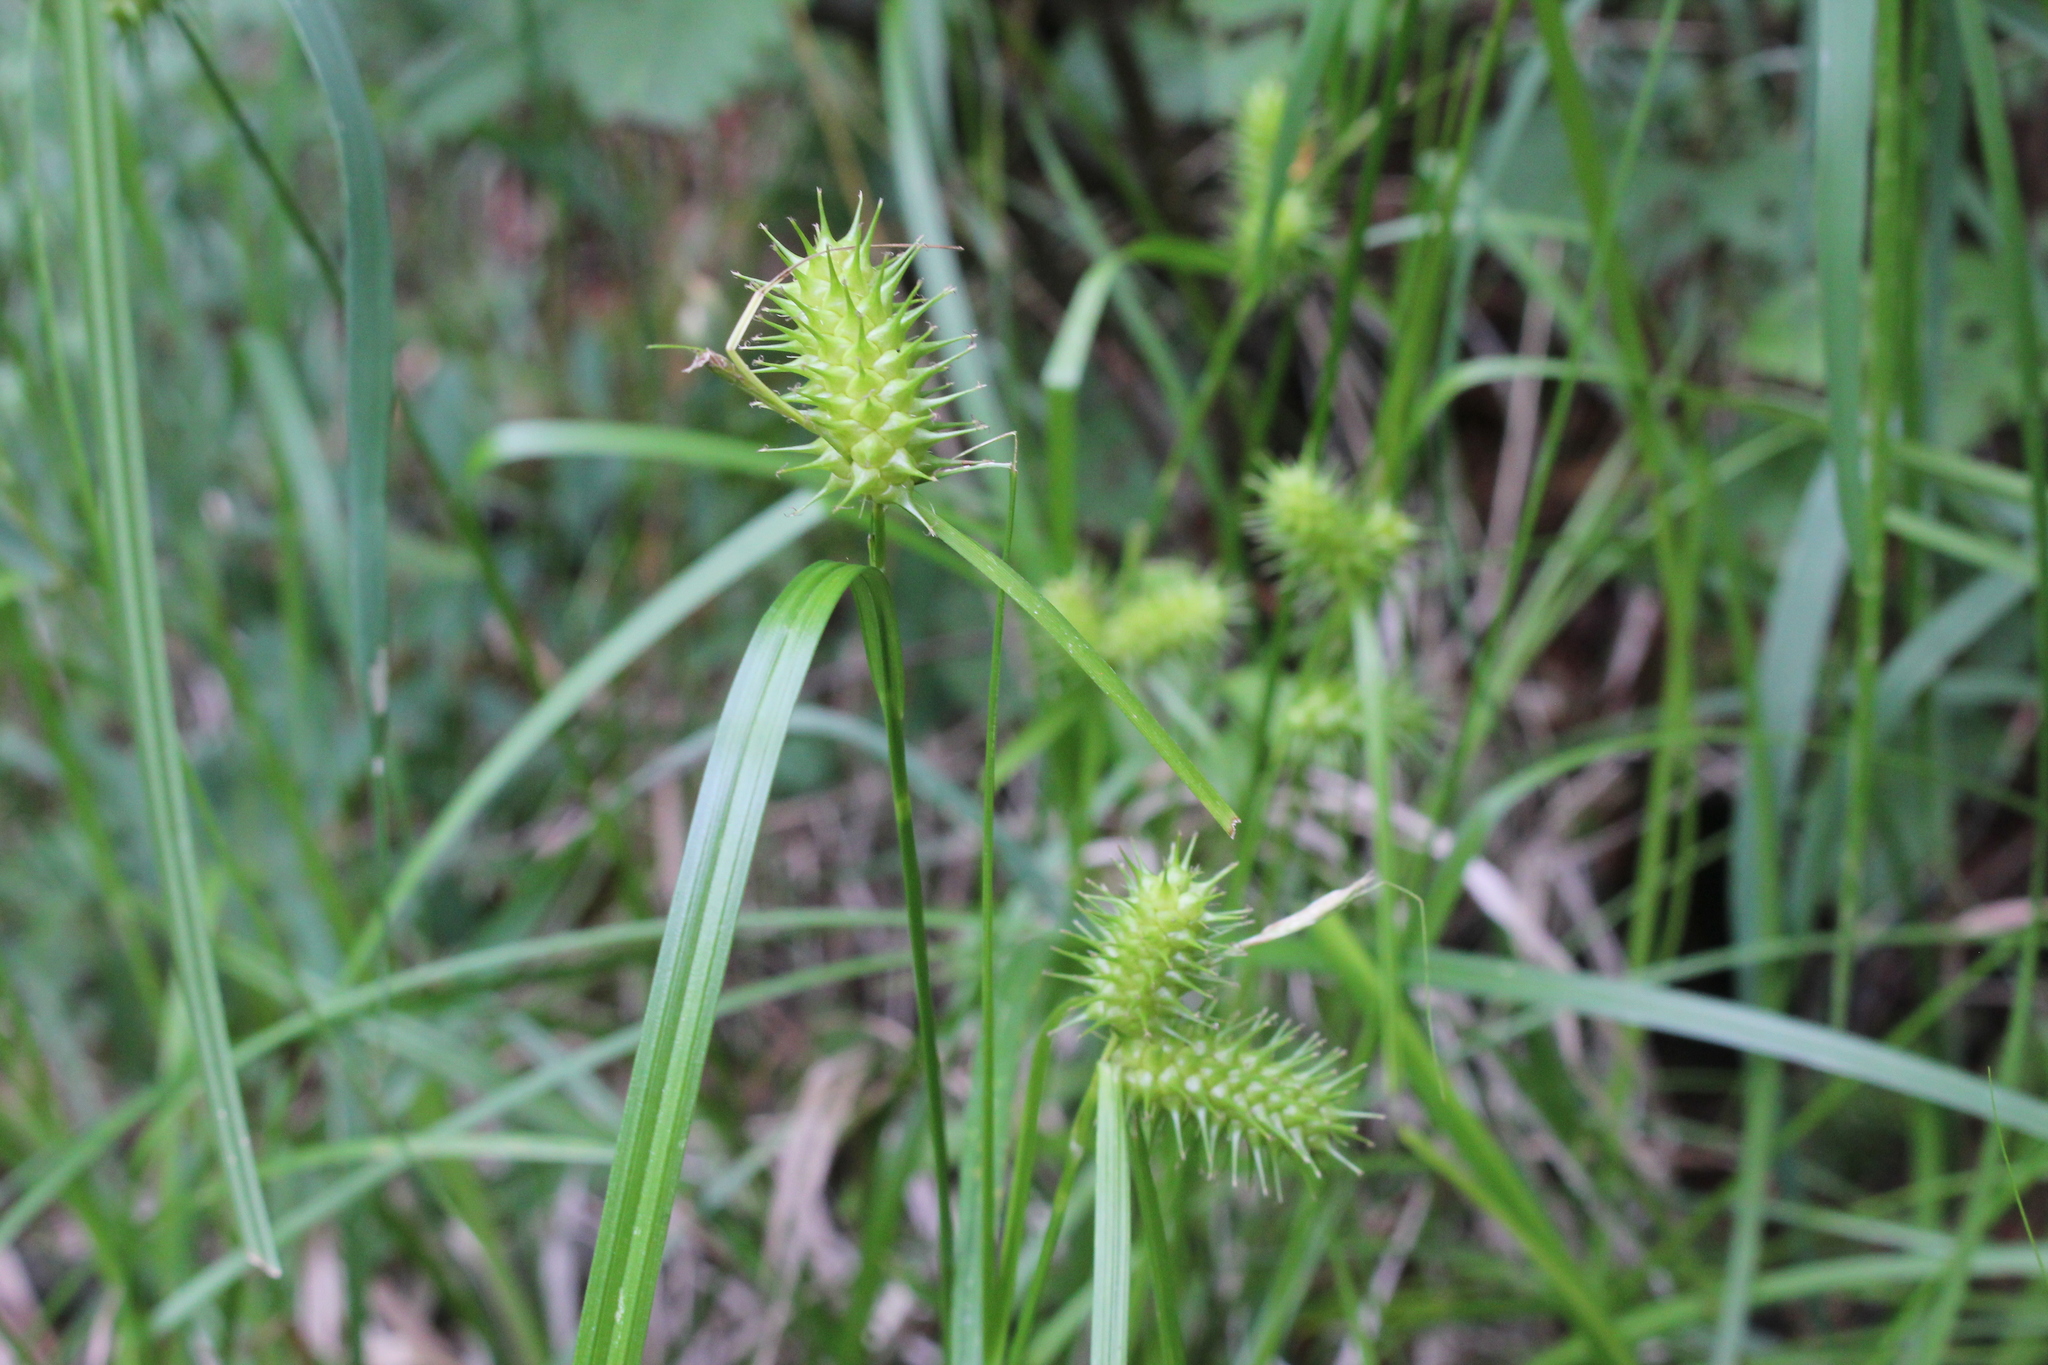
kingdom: Plantae
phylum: Tracheophyta
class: Liliopsida
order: Poales
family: Cyperaceae
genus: Carex
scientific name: Carex lurida
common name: Sallow sedge
